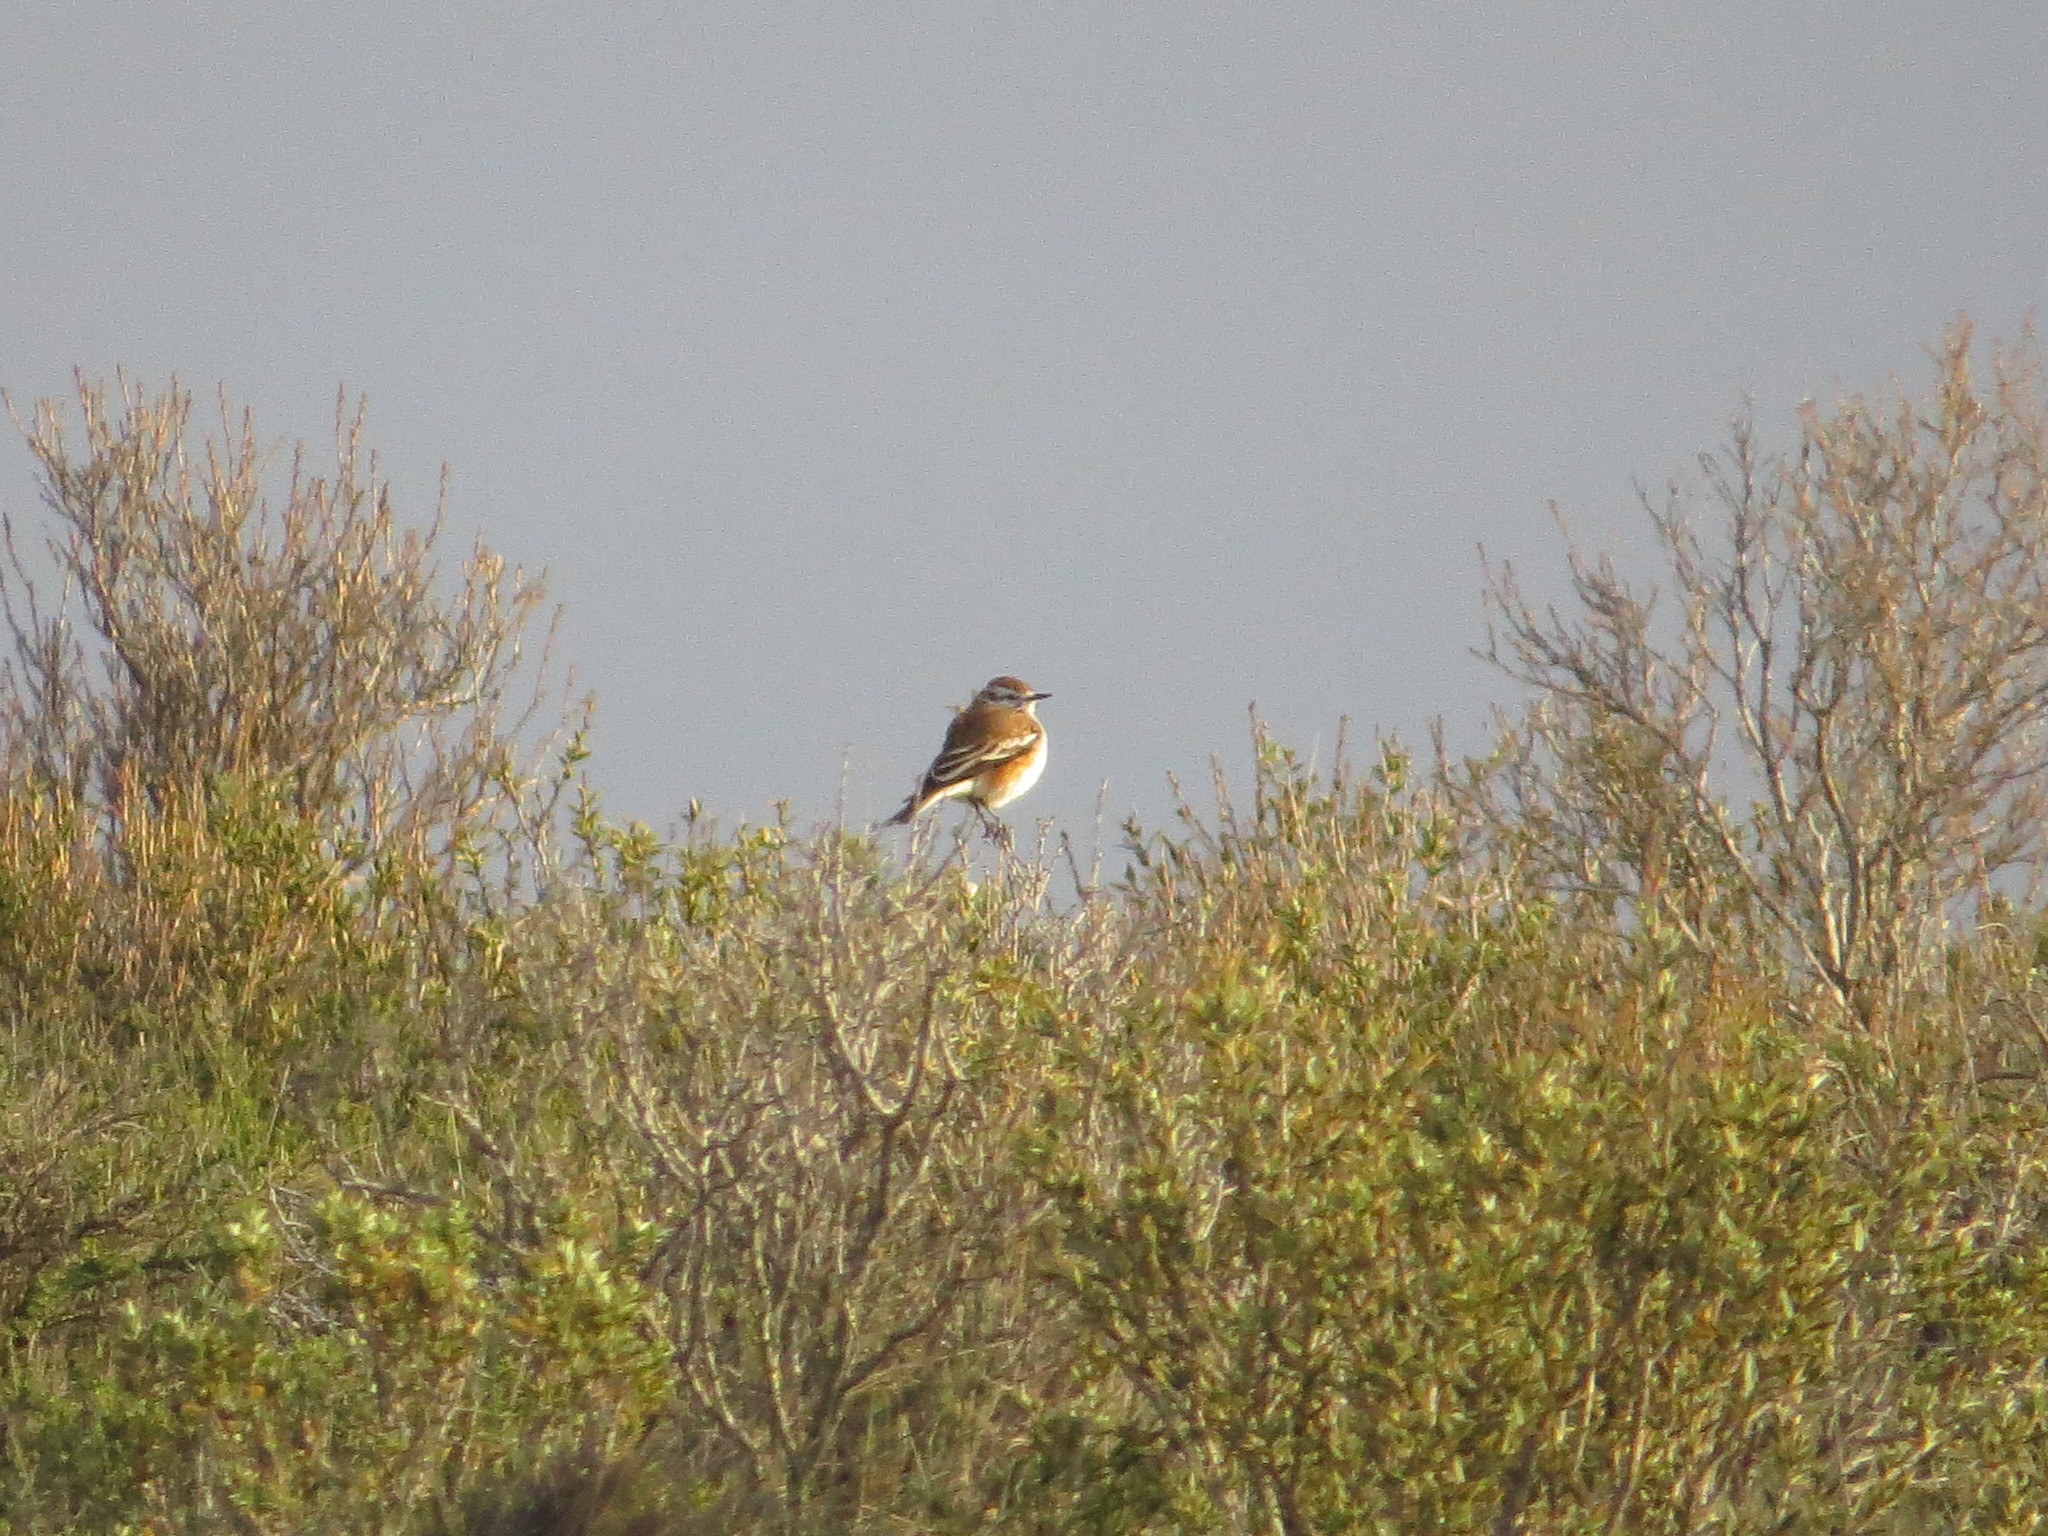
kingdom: Animalia
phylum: Chordata
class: Aves
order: Passeriformes
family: Tyrannidae
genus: Xolmis
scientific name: Xolmis rubetra
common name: Rusty-backed monjita
